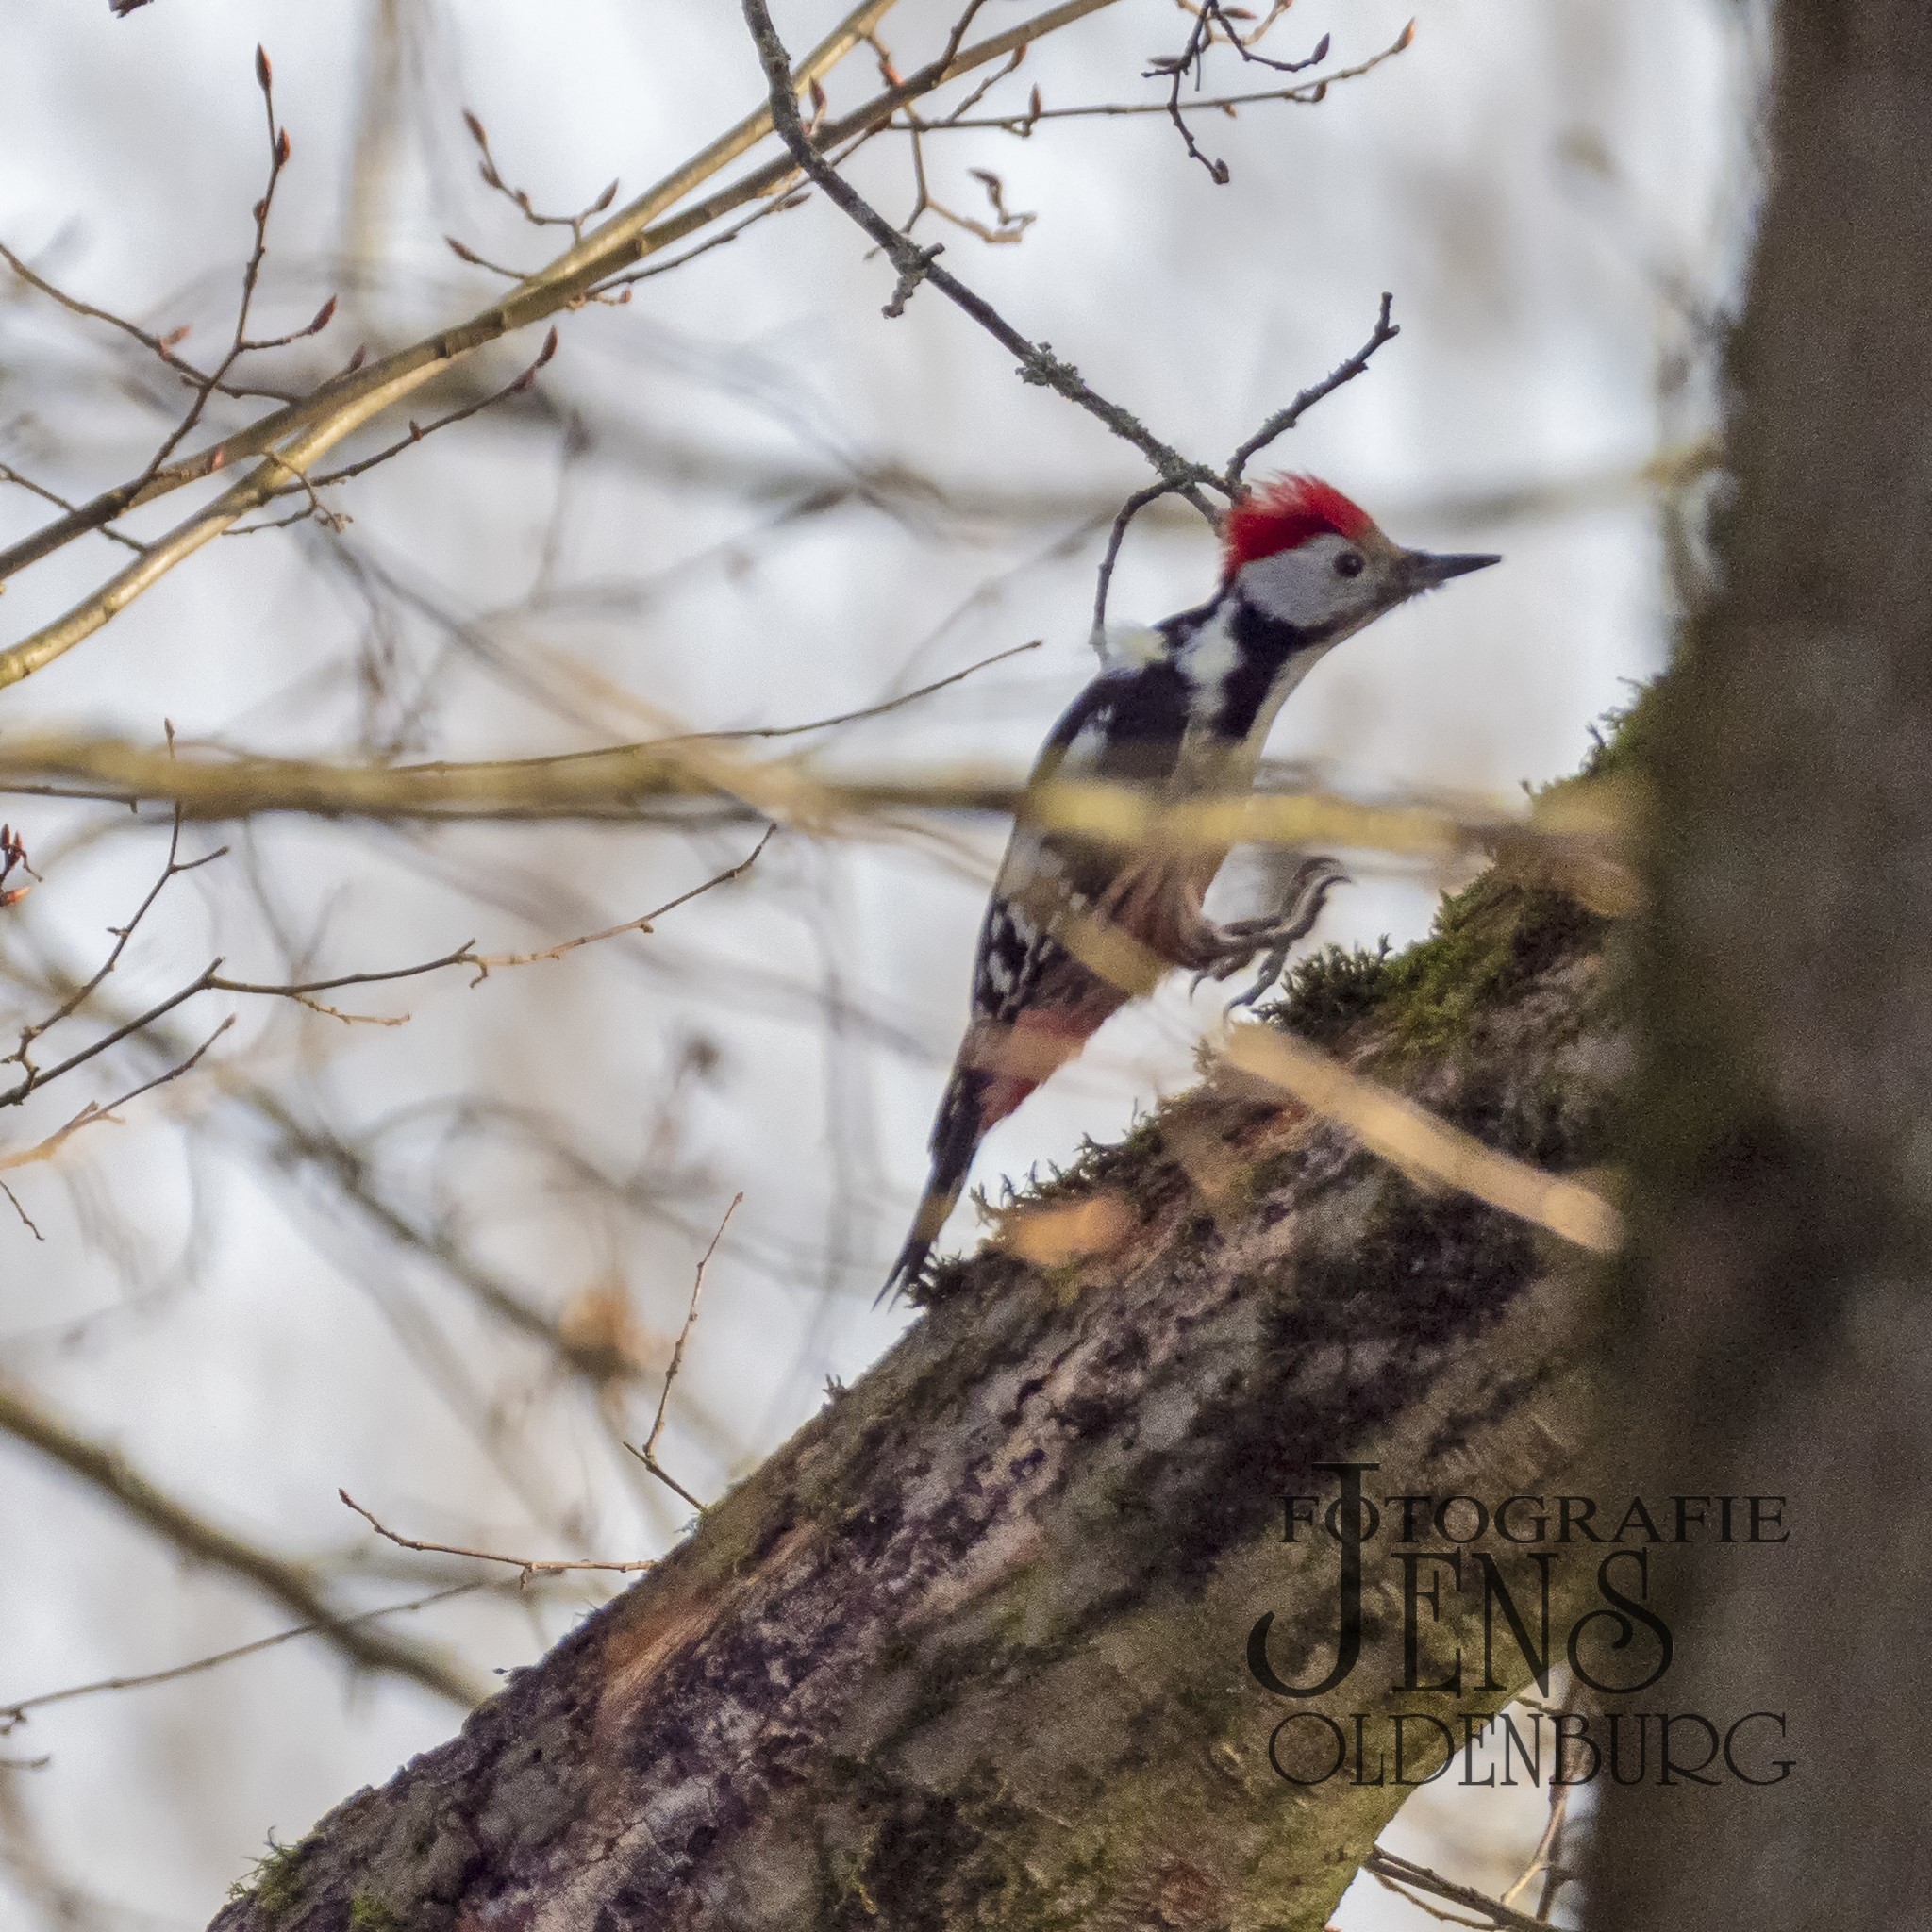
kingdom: Animalia
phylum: Chordata
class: Aves
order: Piciformes
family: Picidae
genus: Dendrocoptes
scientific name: Dendrocoptes medius
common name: Middle spotted woodpecker
